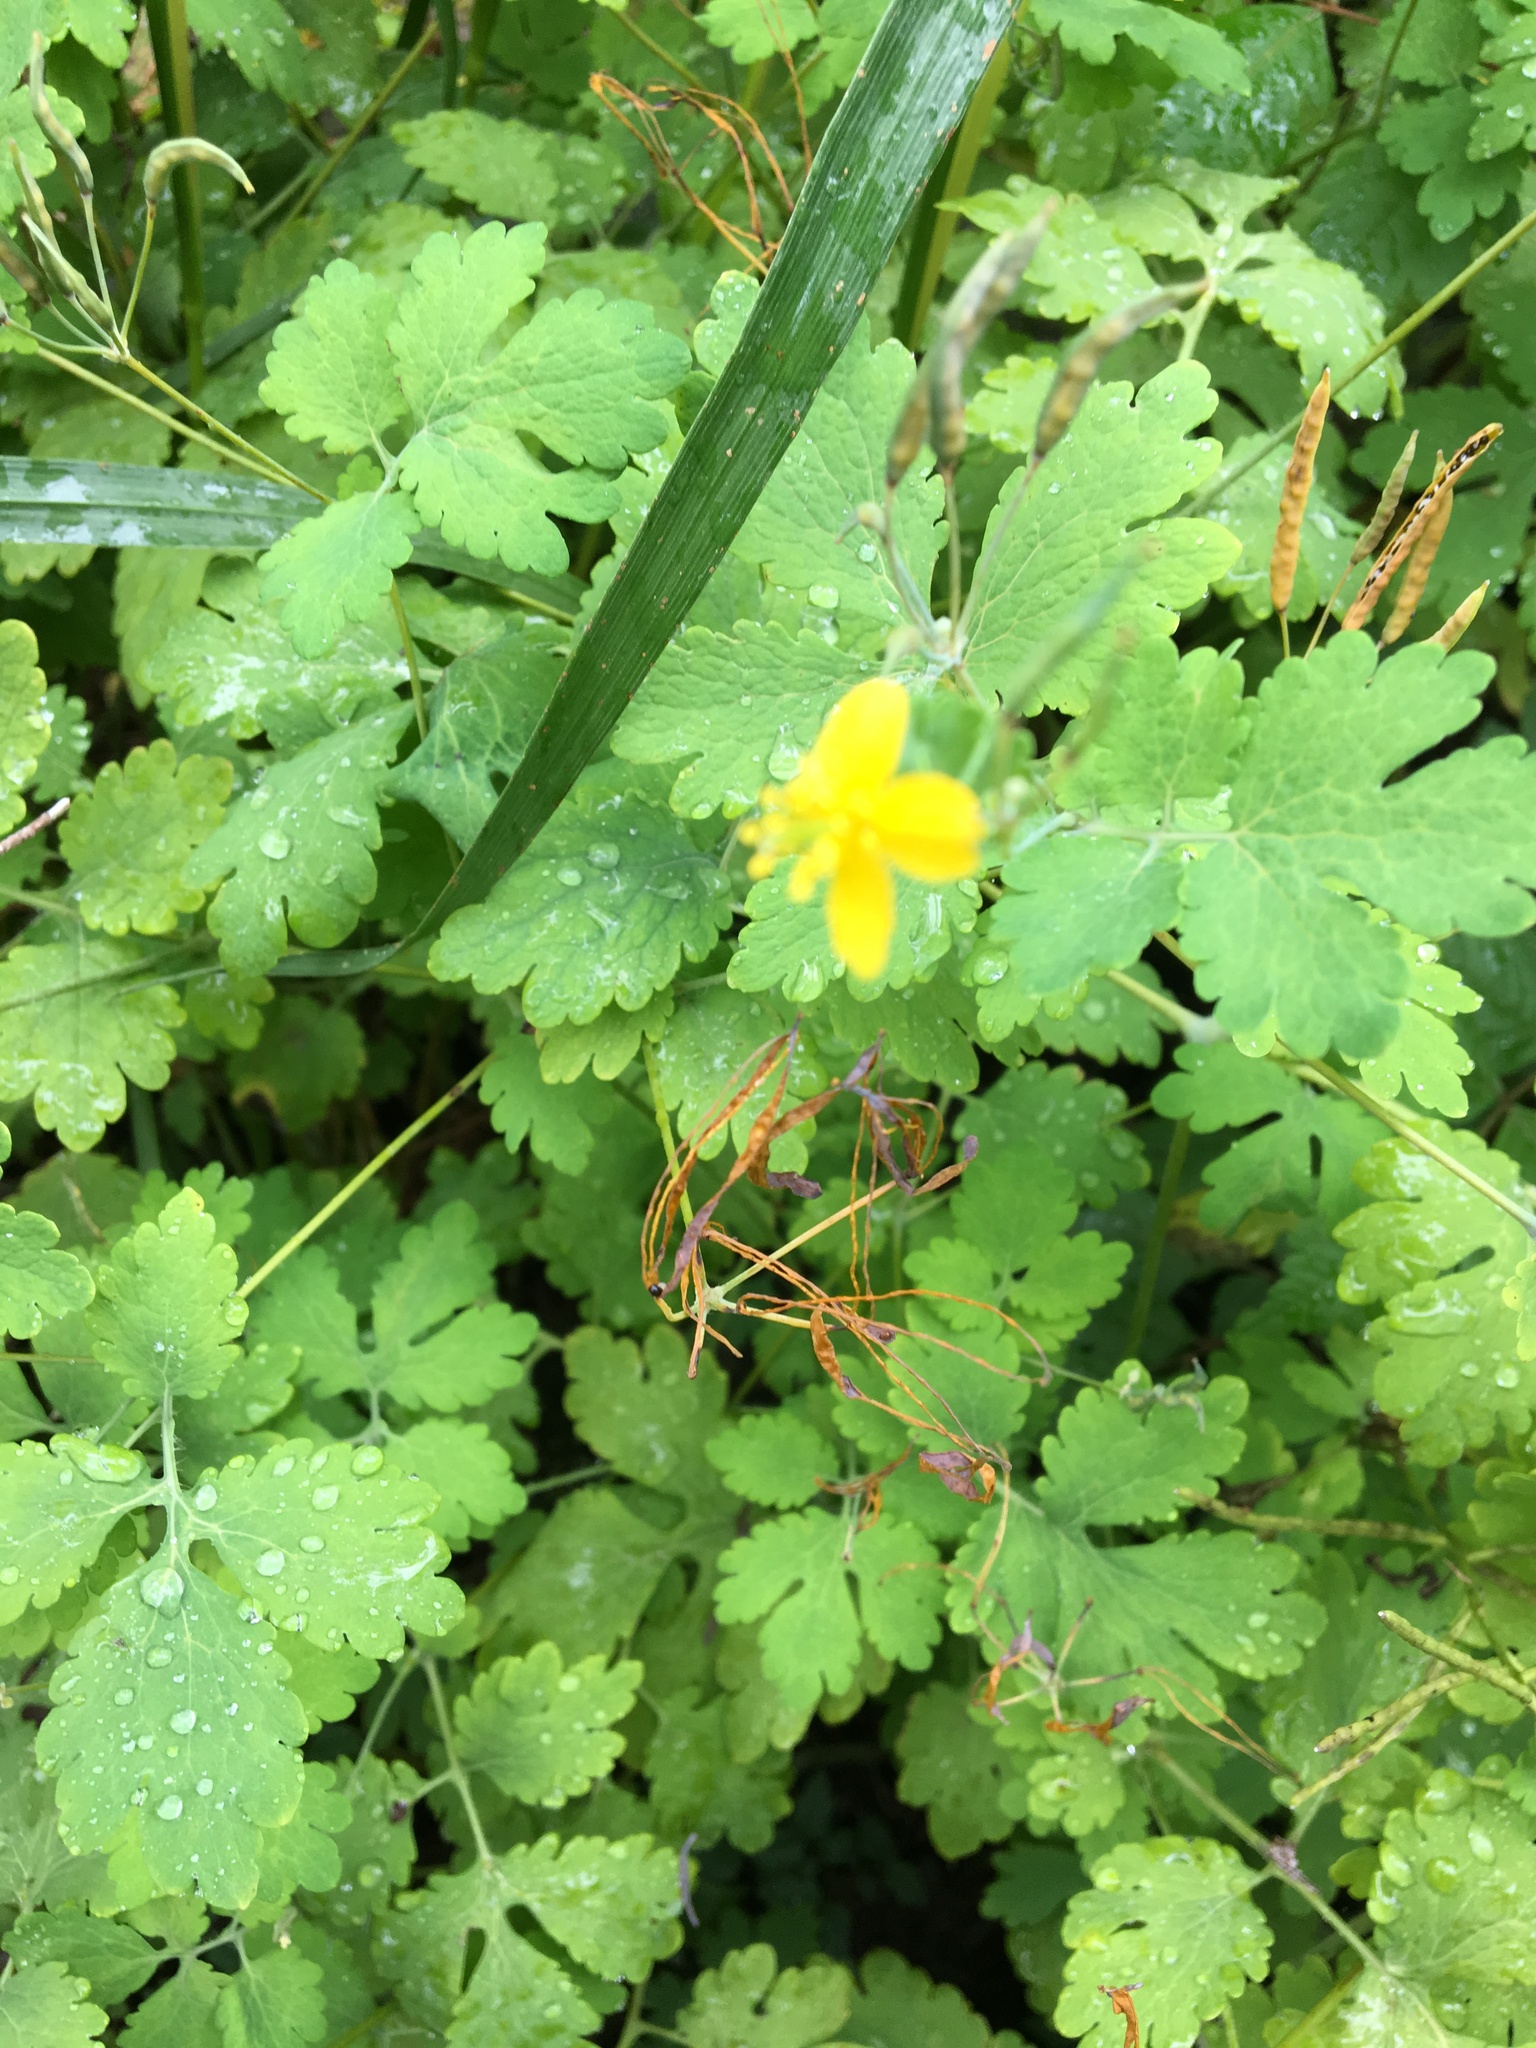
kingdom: Plantae
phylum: Tracheophyta
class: Magnoliopsida
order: Ranunculales
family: Papaveraceae
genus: Chelidonium
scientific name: Chelidonium majus
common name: Greater celandine
